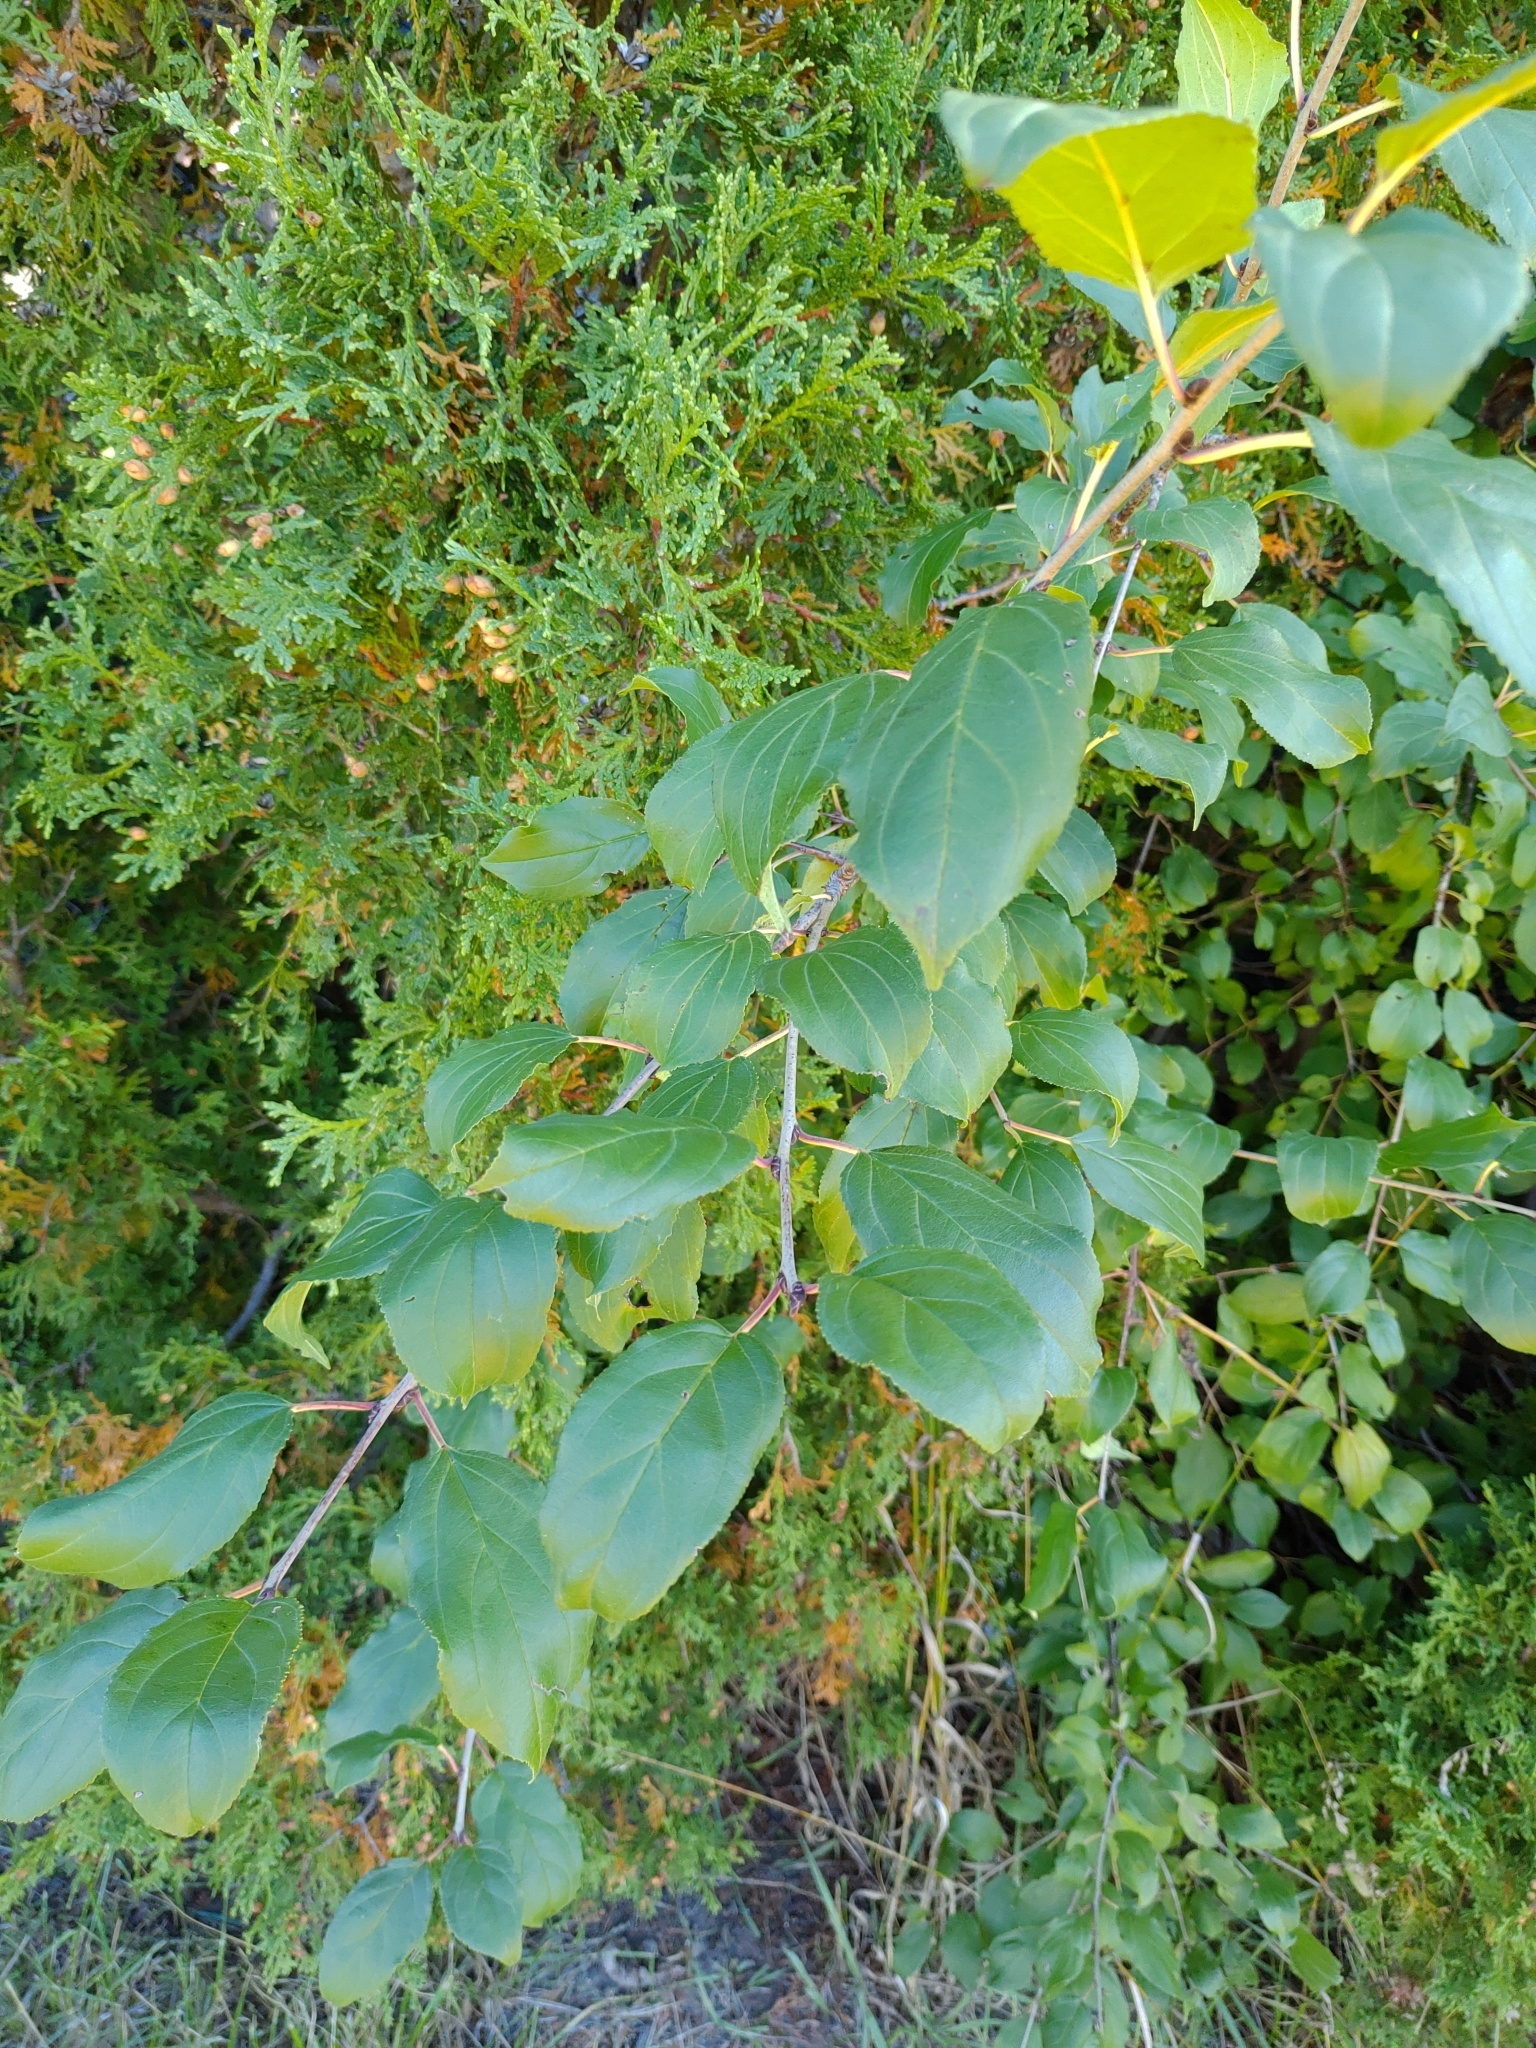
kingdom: Plantae
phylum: Tracheophyta
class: Magnoliopsida
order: Rosales
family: Rhamnaceae
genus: Rhamnus
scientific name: Rhamnus cathartica
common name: Common buckthorn
